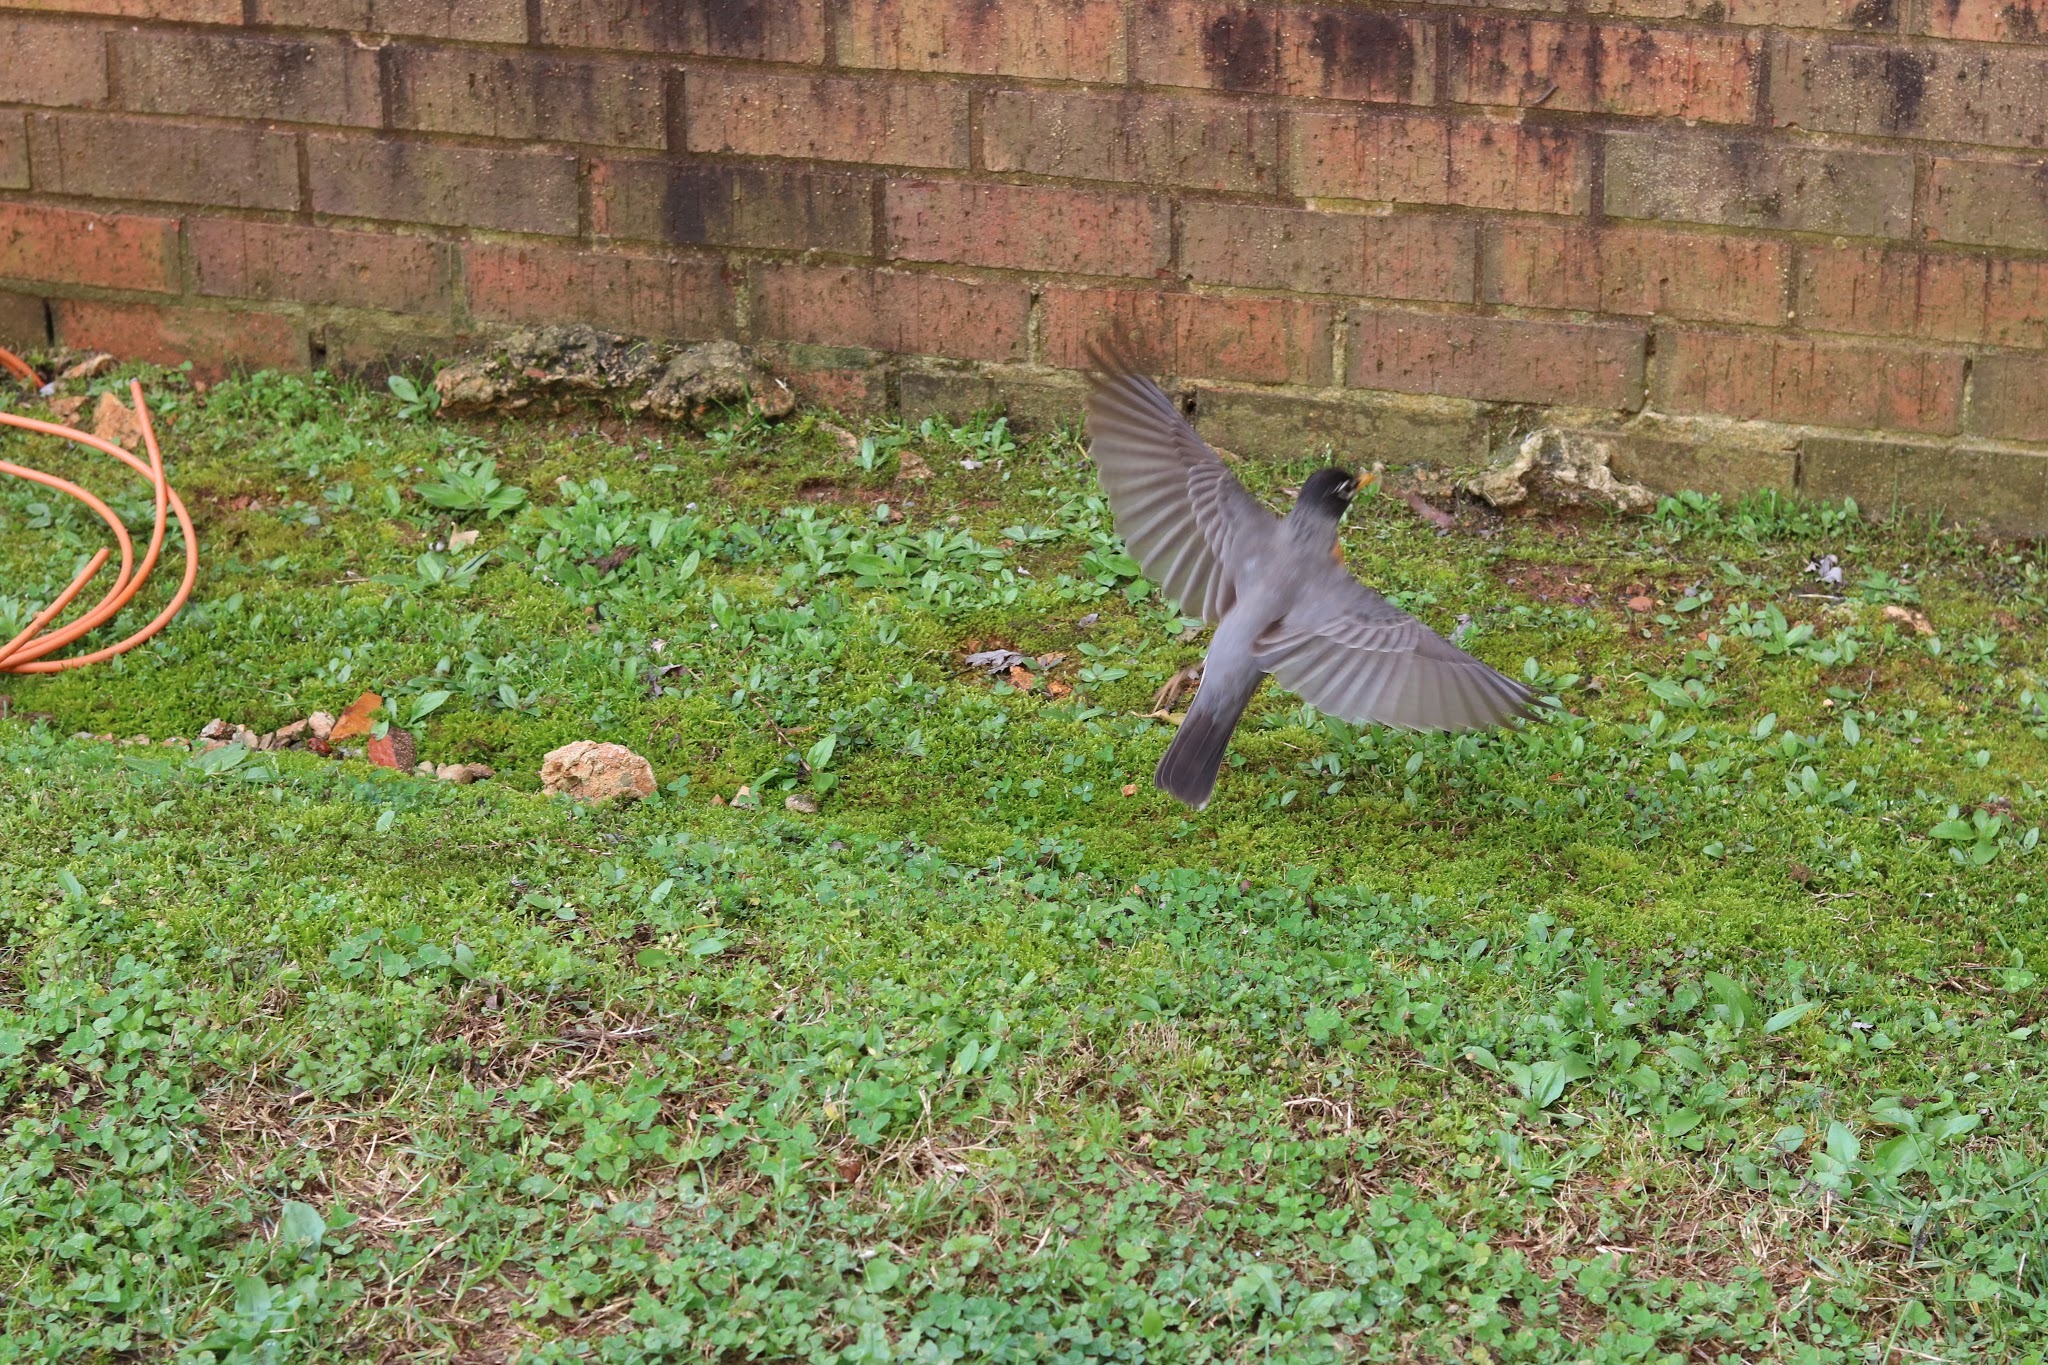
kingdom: Animalia
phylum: Chordata
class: Aves
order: Passeriformes
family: Turdidae
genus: Turdus
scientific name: Turdus migratorius
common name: American robin
